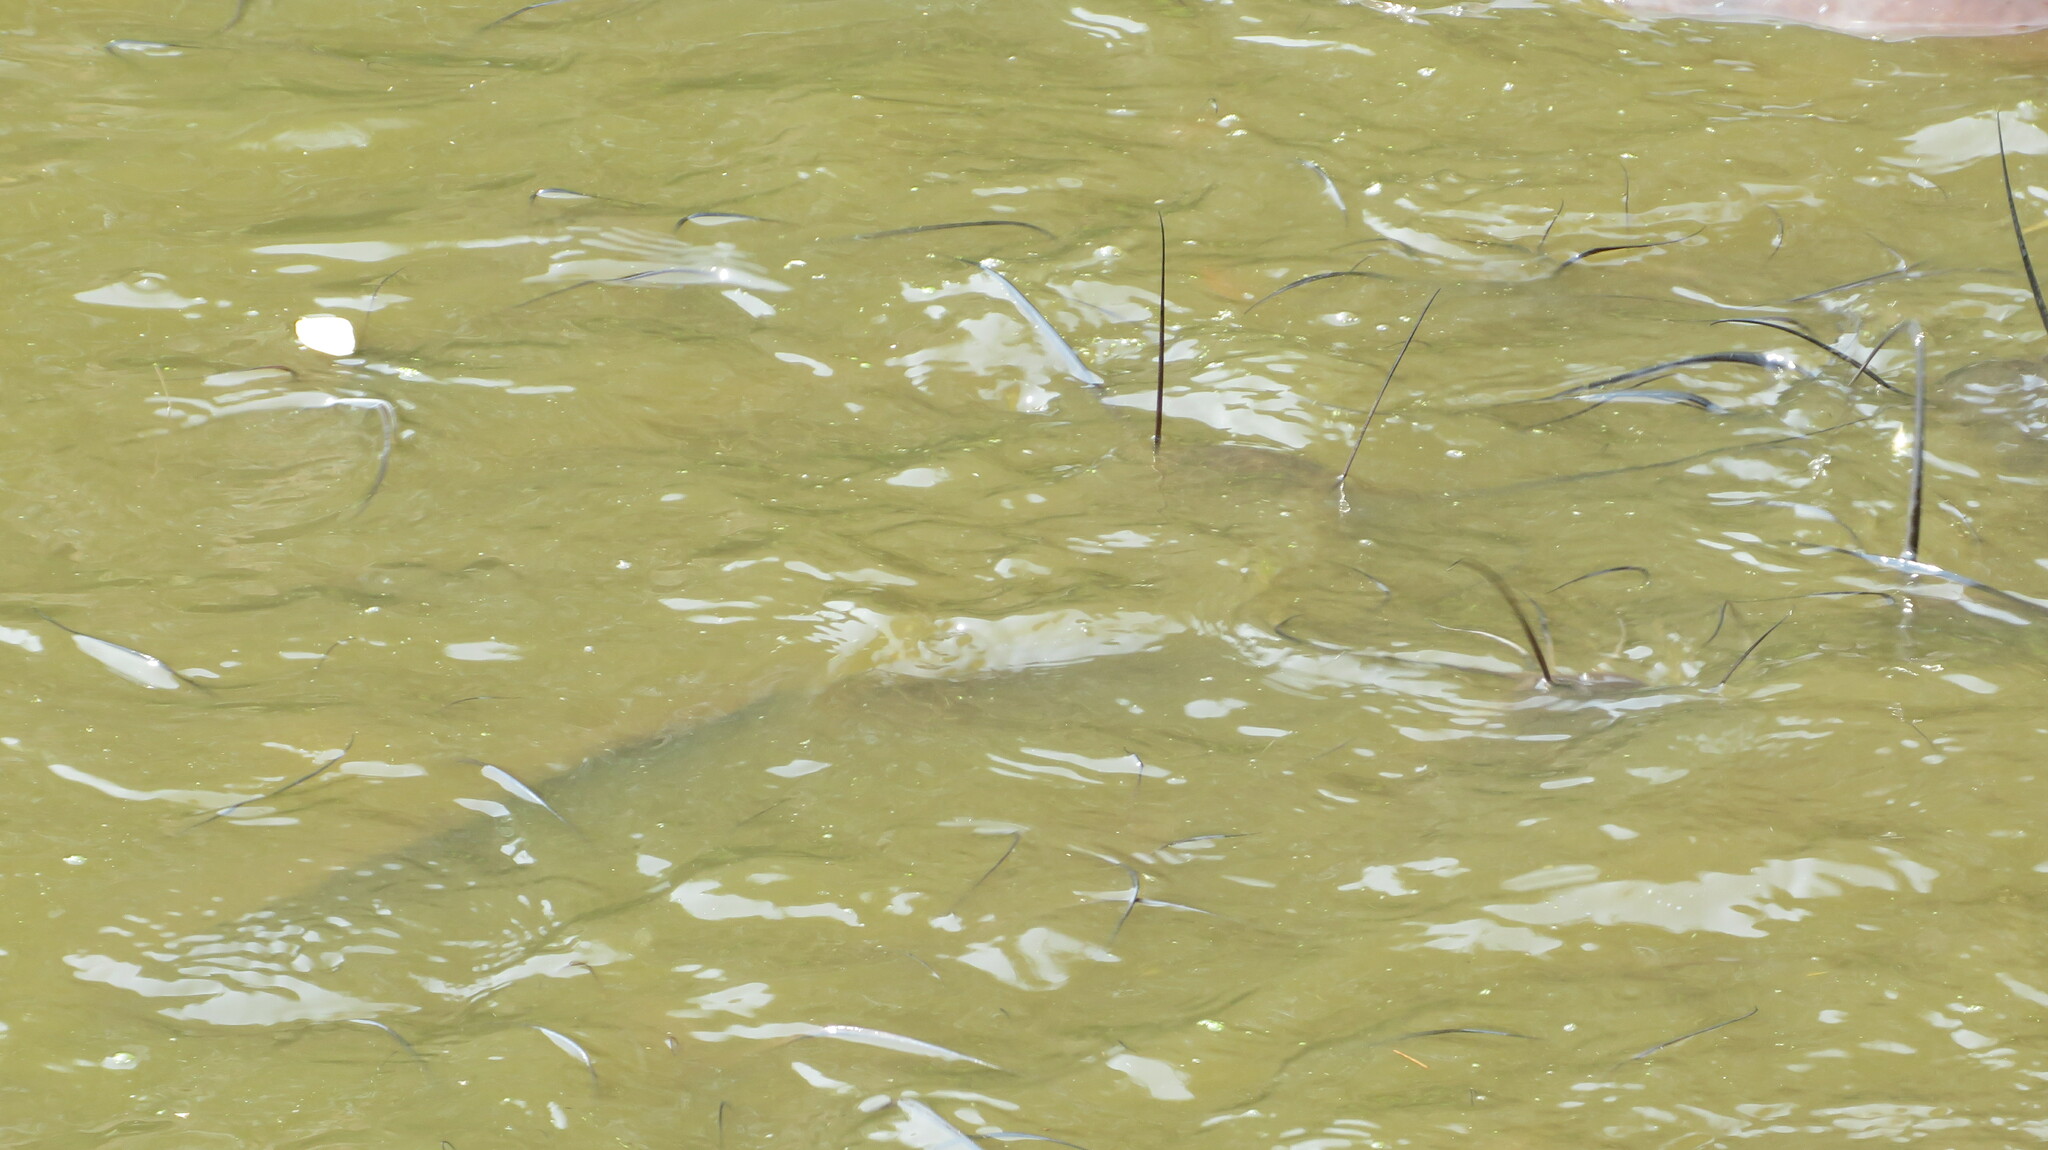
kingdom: Animalia
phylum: Chordata
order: Siluriformes
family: Clariidae
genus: Clarias
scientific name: Clarias gariepinus
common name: African catfish
